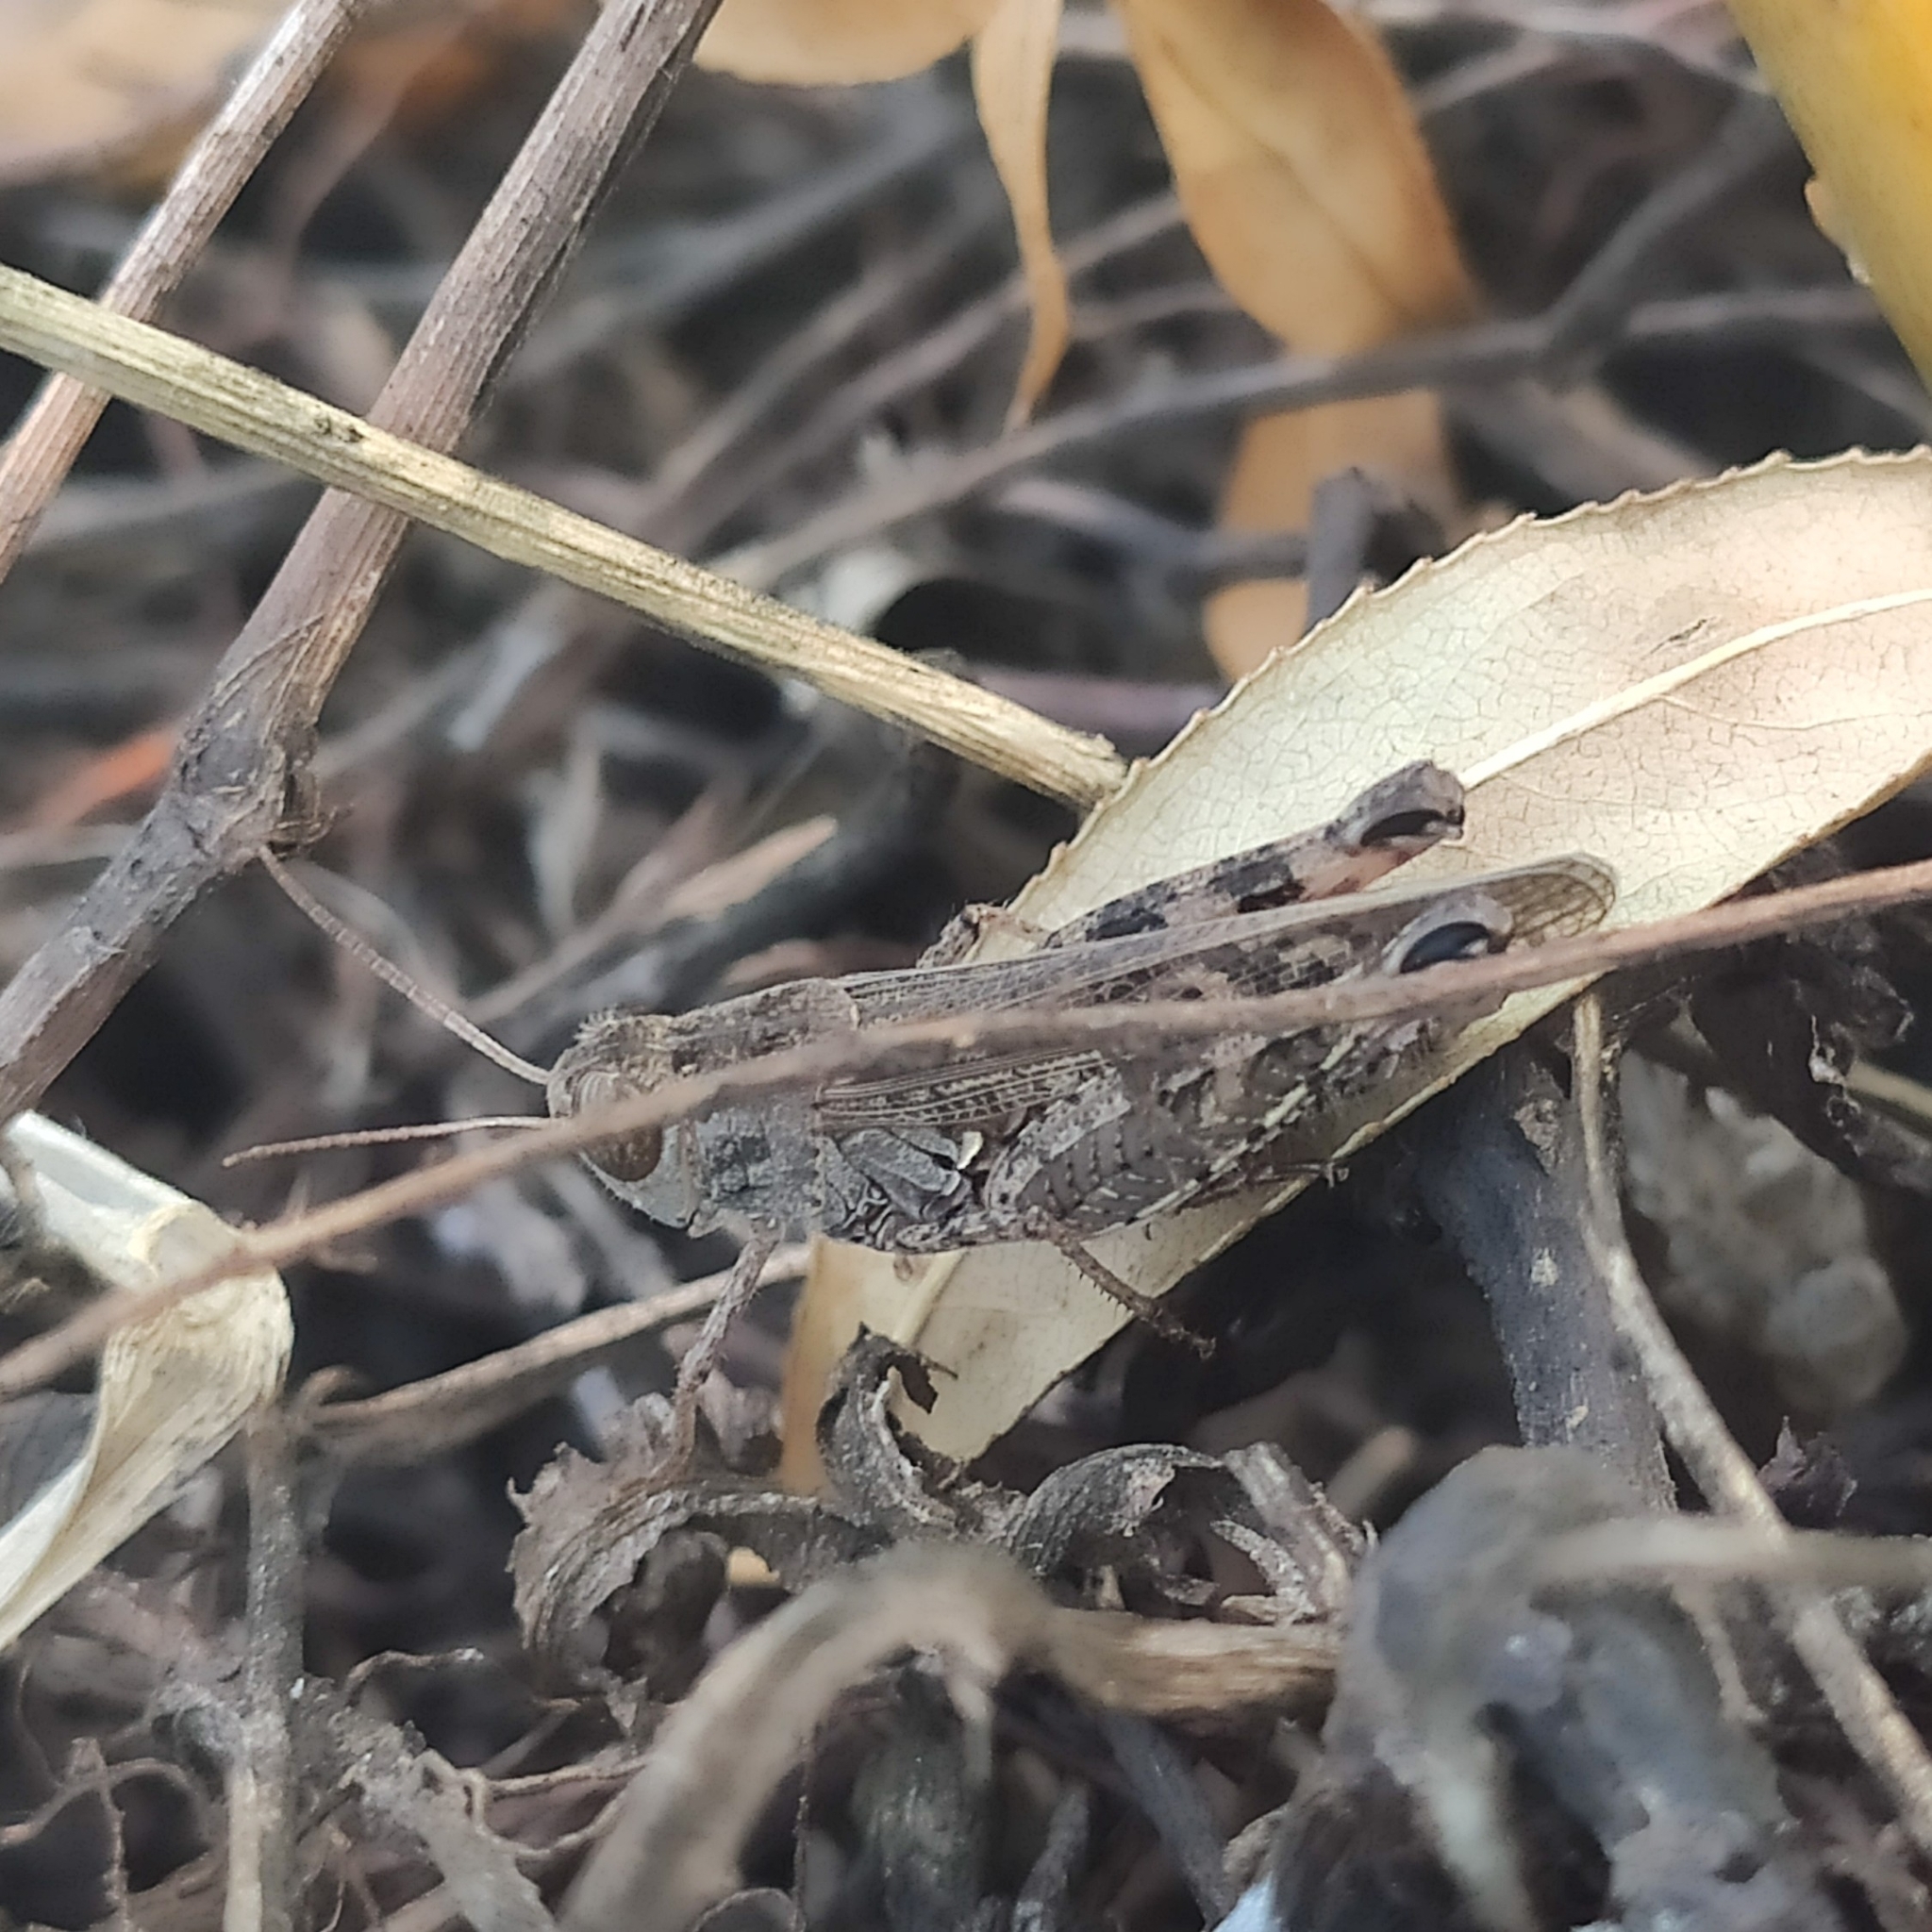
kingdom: Animalia
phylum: Arthropoda
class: Insecta
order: Orthoptera
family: Acrididae
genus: Calliptamus
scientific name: Calliptamus italicus
